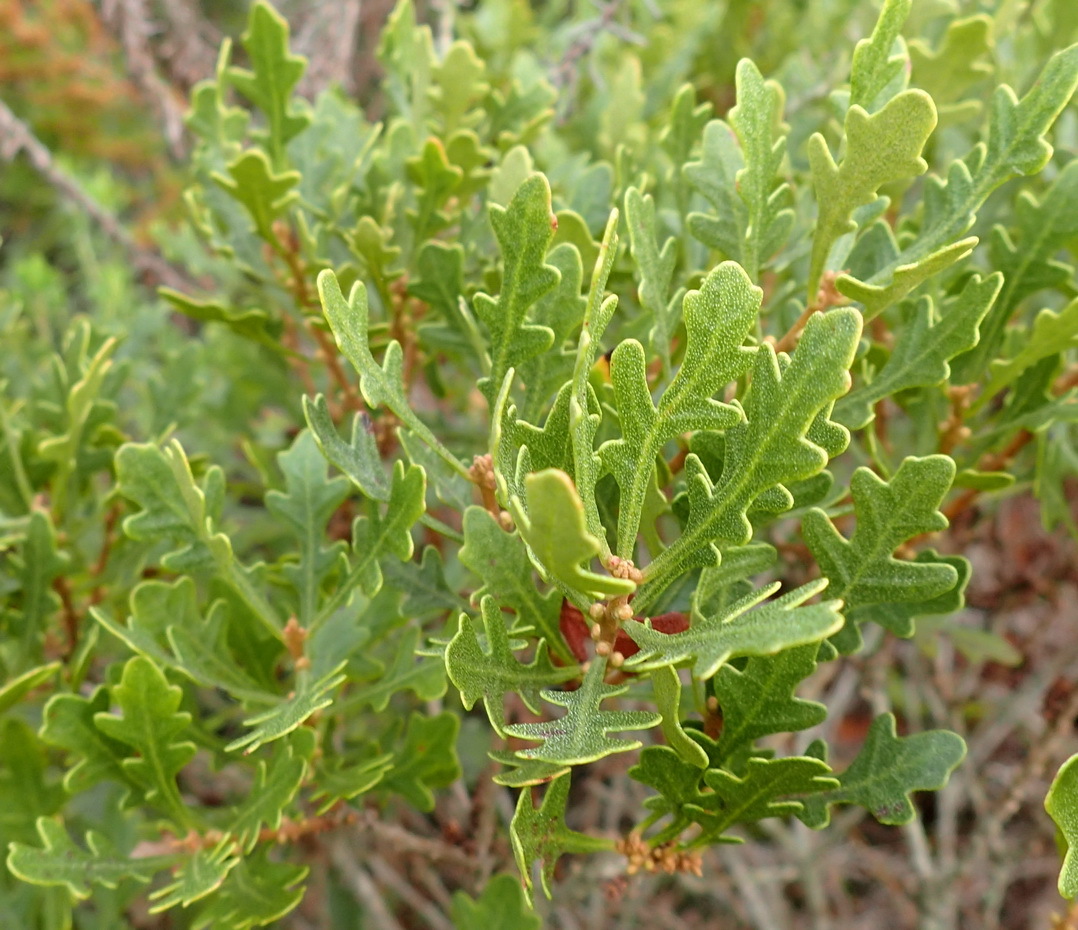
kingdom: Plantae
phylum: Tracheophyta
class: Magnoliopsida
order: Fagales
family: Myricaceae
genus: Morella
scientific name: Morella quercifolia
